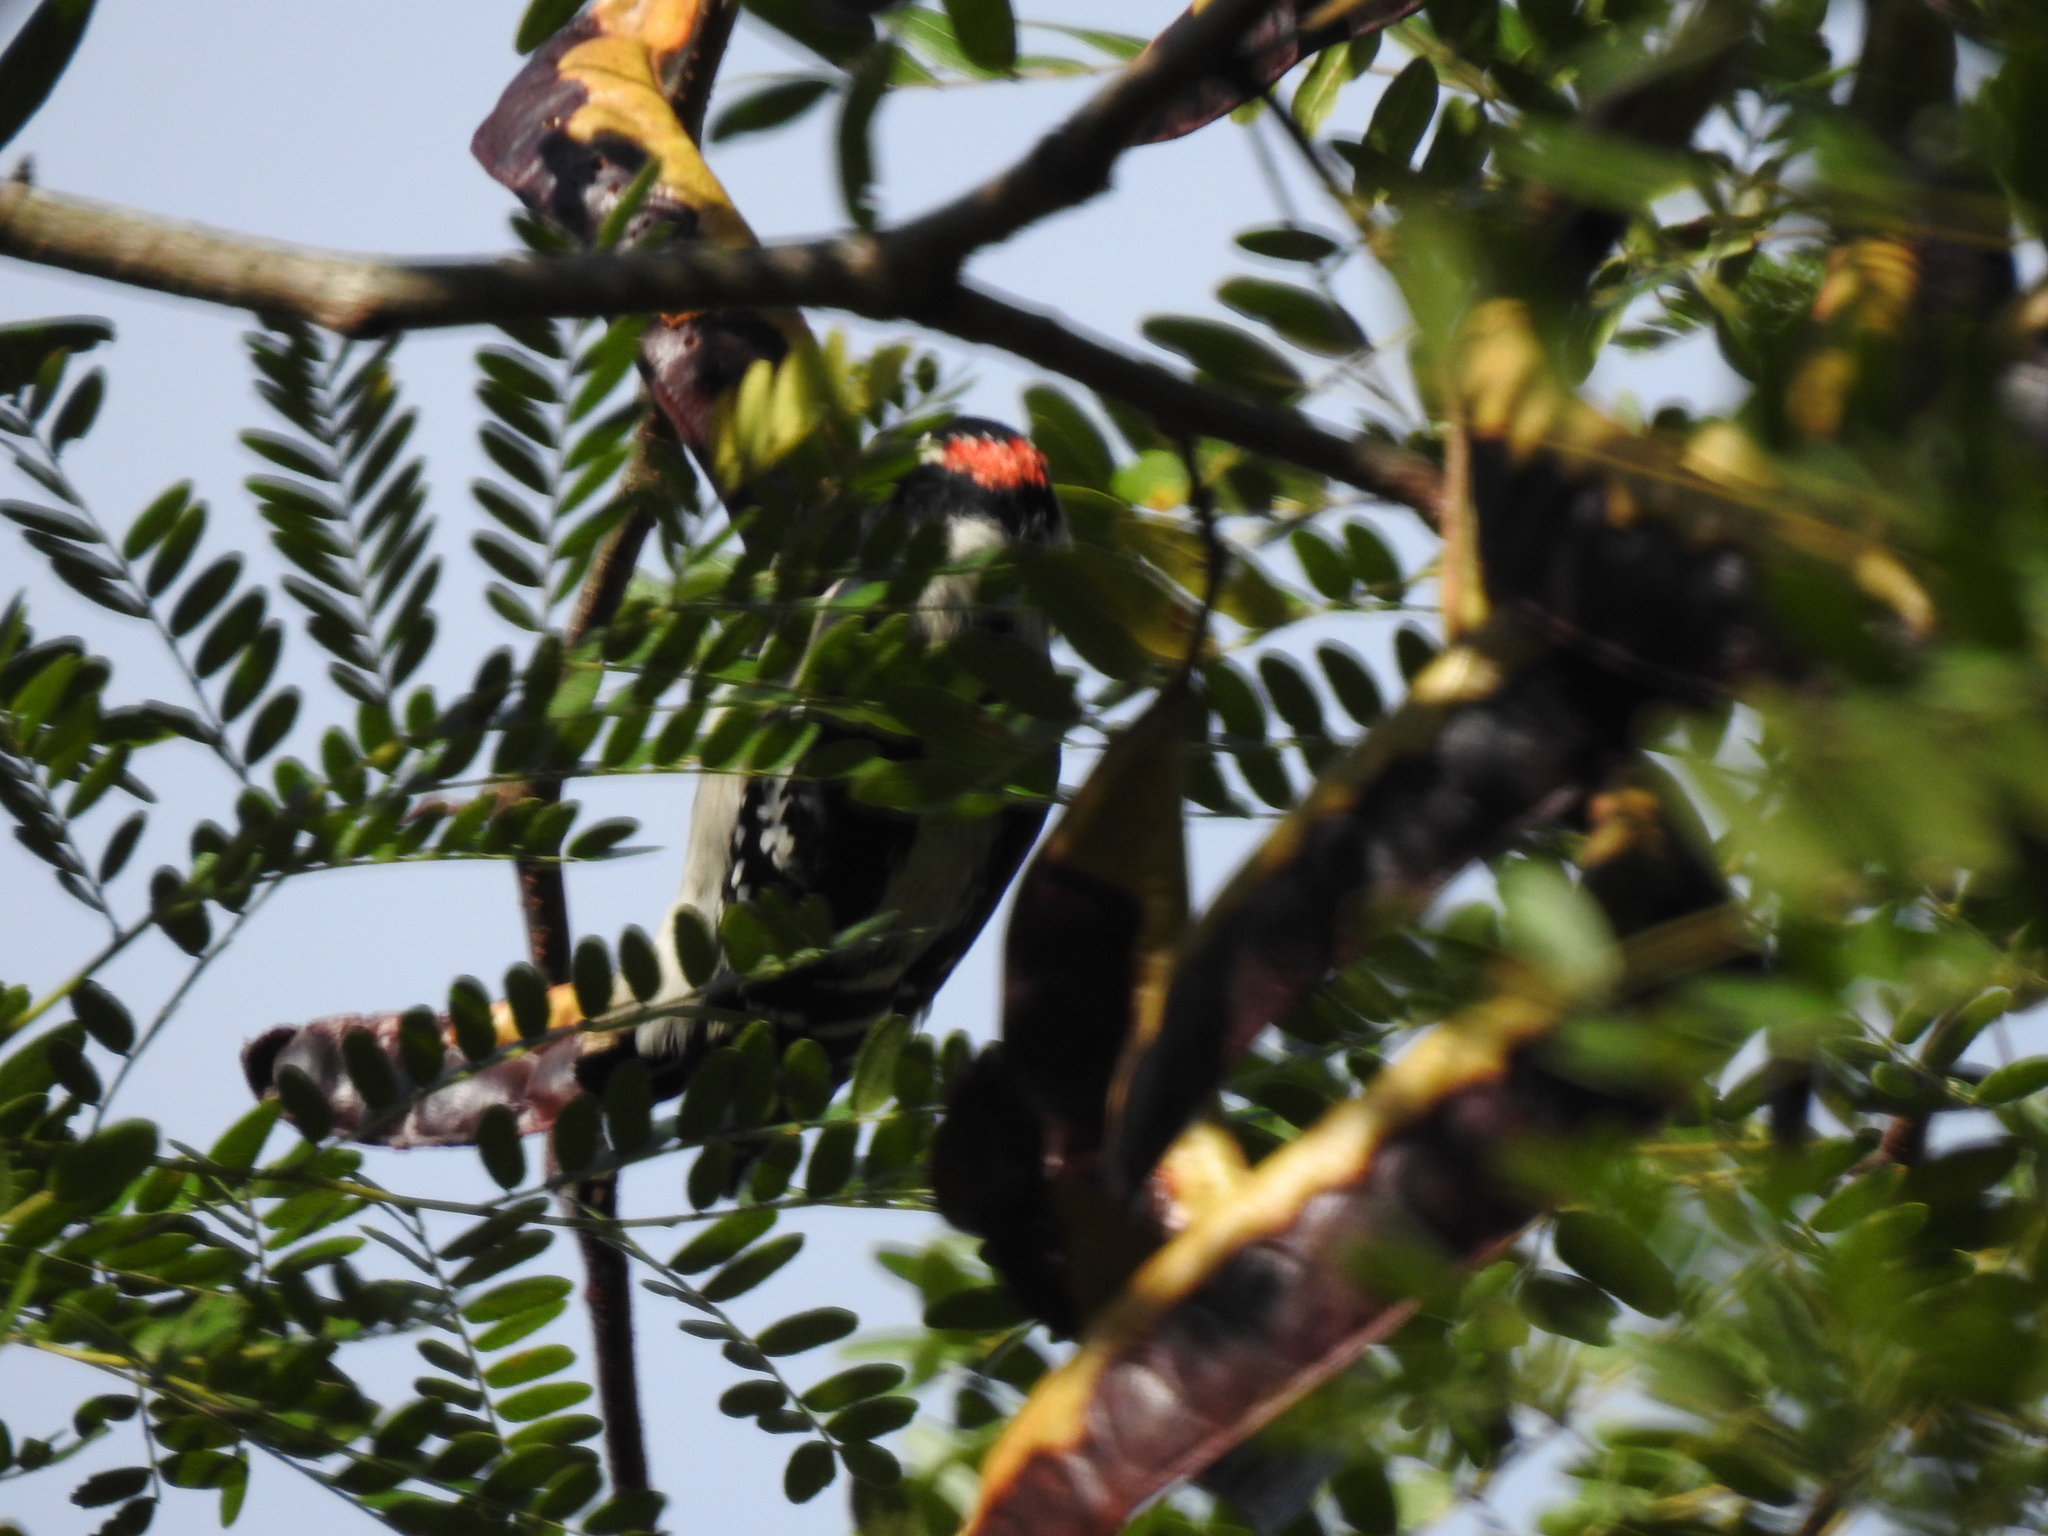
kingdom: Animalia
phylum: Chordata
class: Aves
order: Piciformes
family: Picidae
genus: Dryobates
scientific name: Dryobates pubescens
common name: Downy woodpecker
